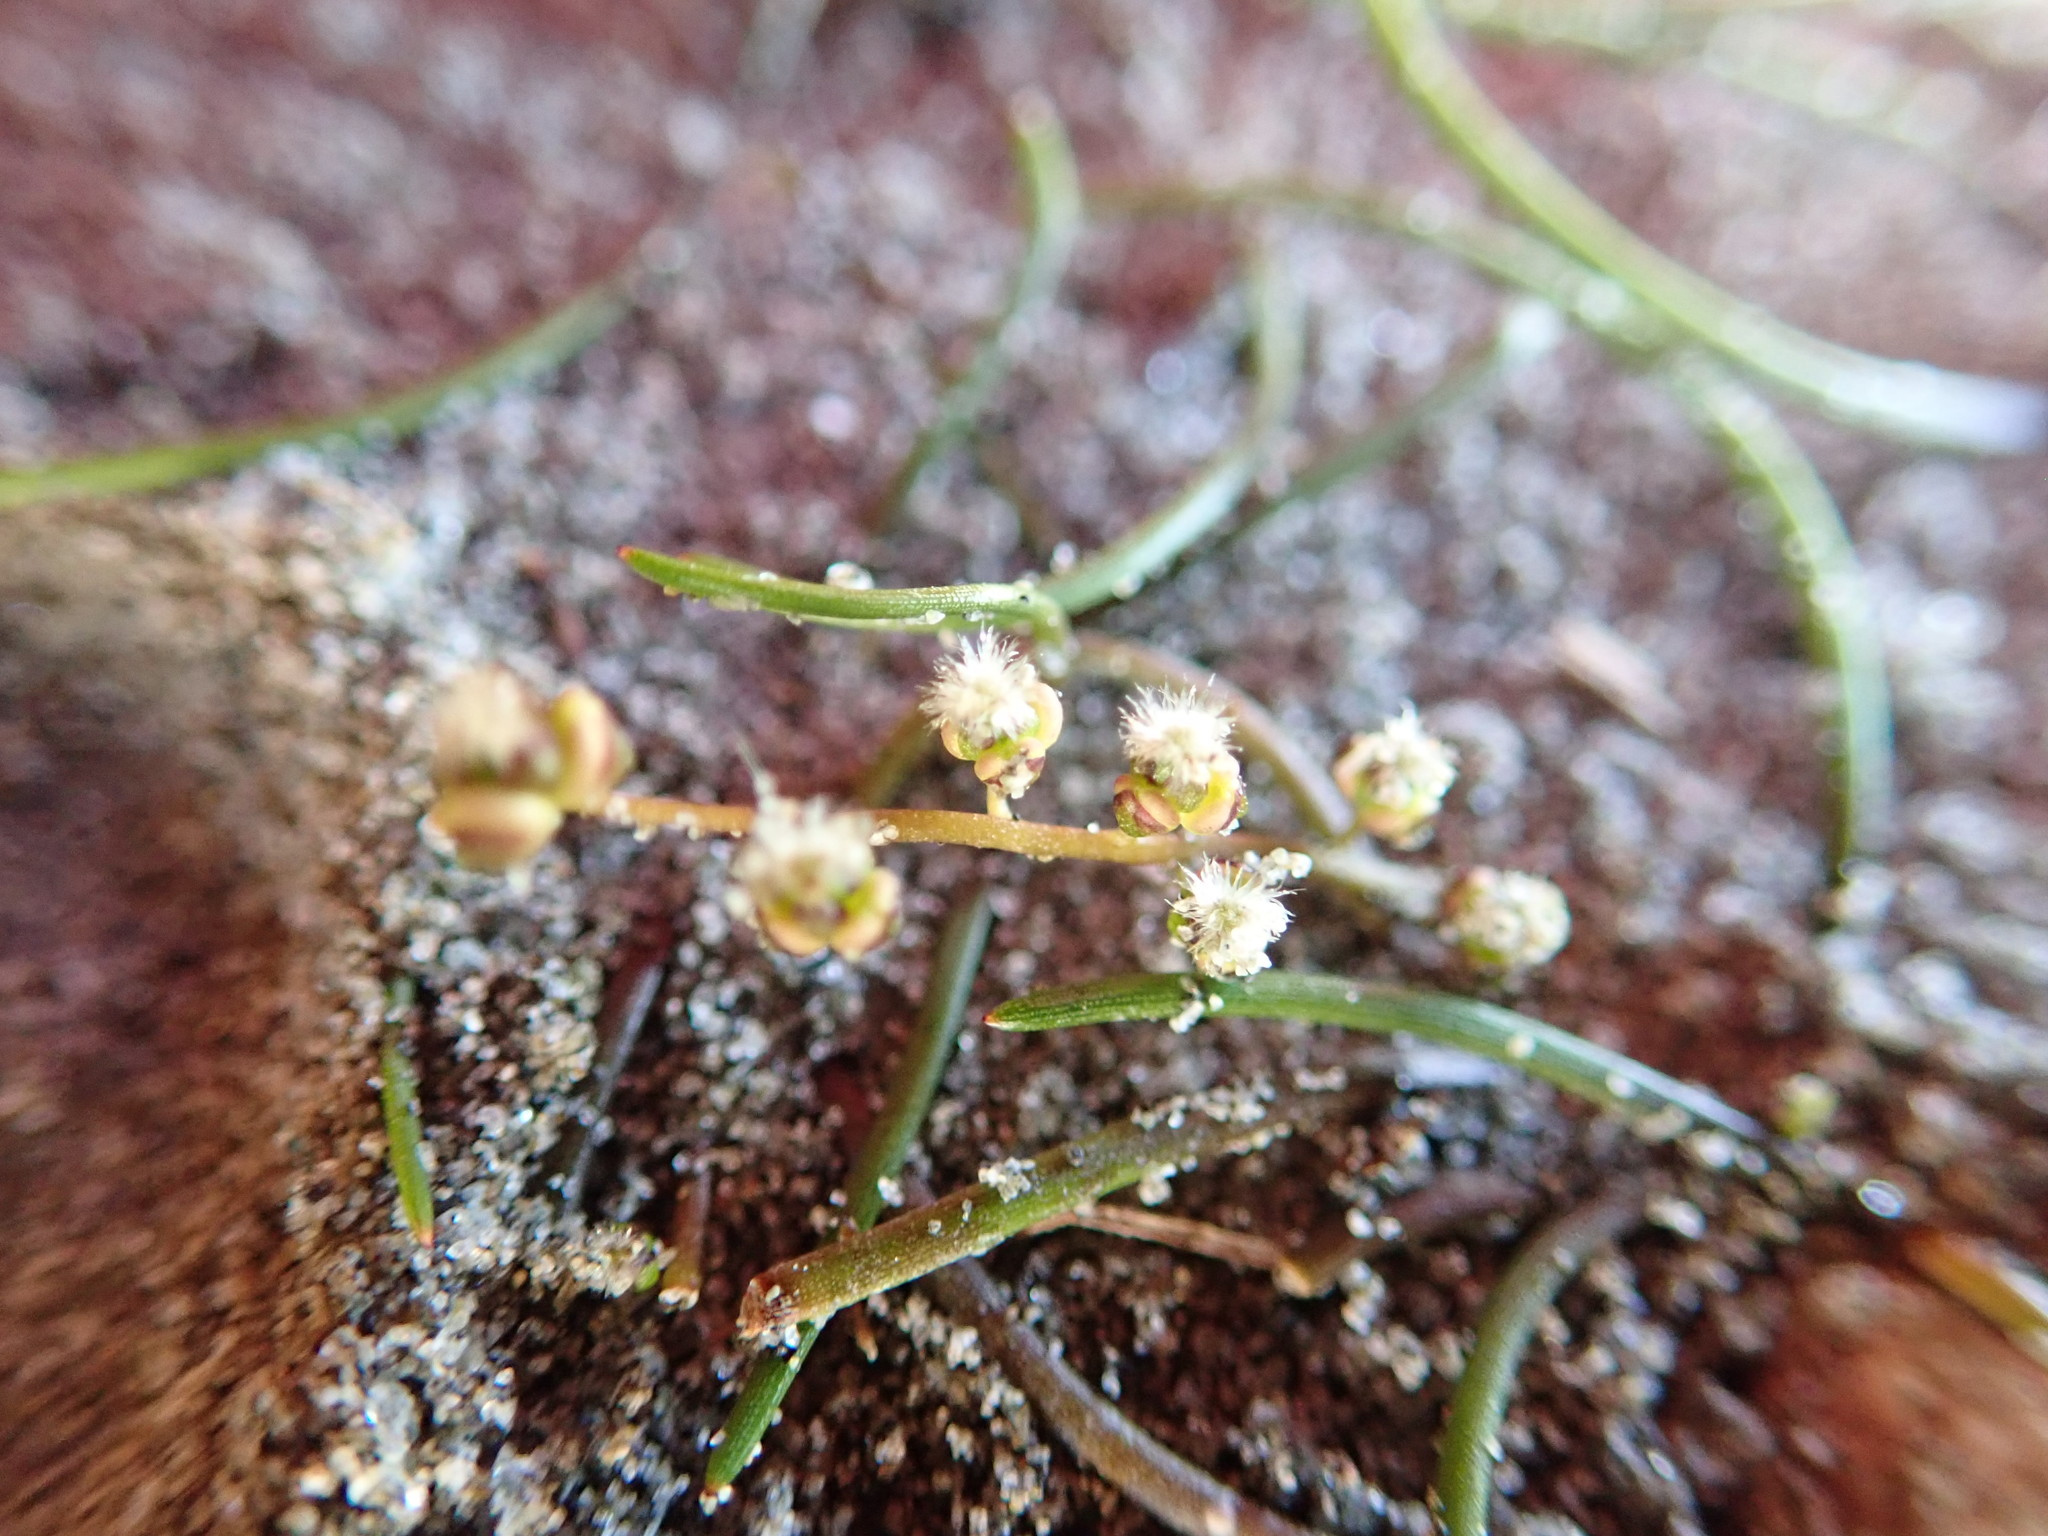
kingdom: Plantae
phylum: Tracheophyta
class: Liliopsida
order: Alismatales
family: Juncaginaceae
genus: Triglochin
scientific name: Triglochin striata
